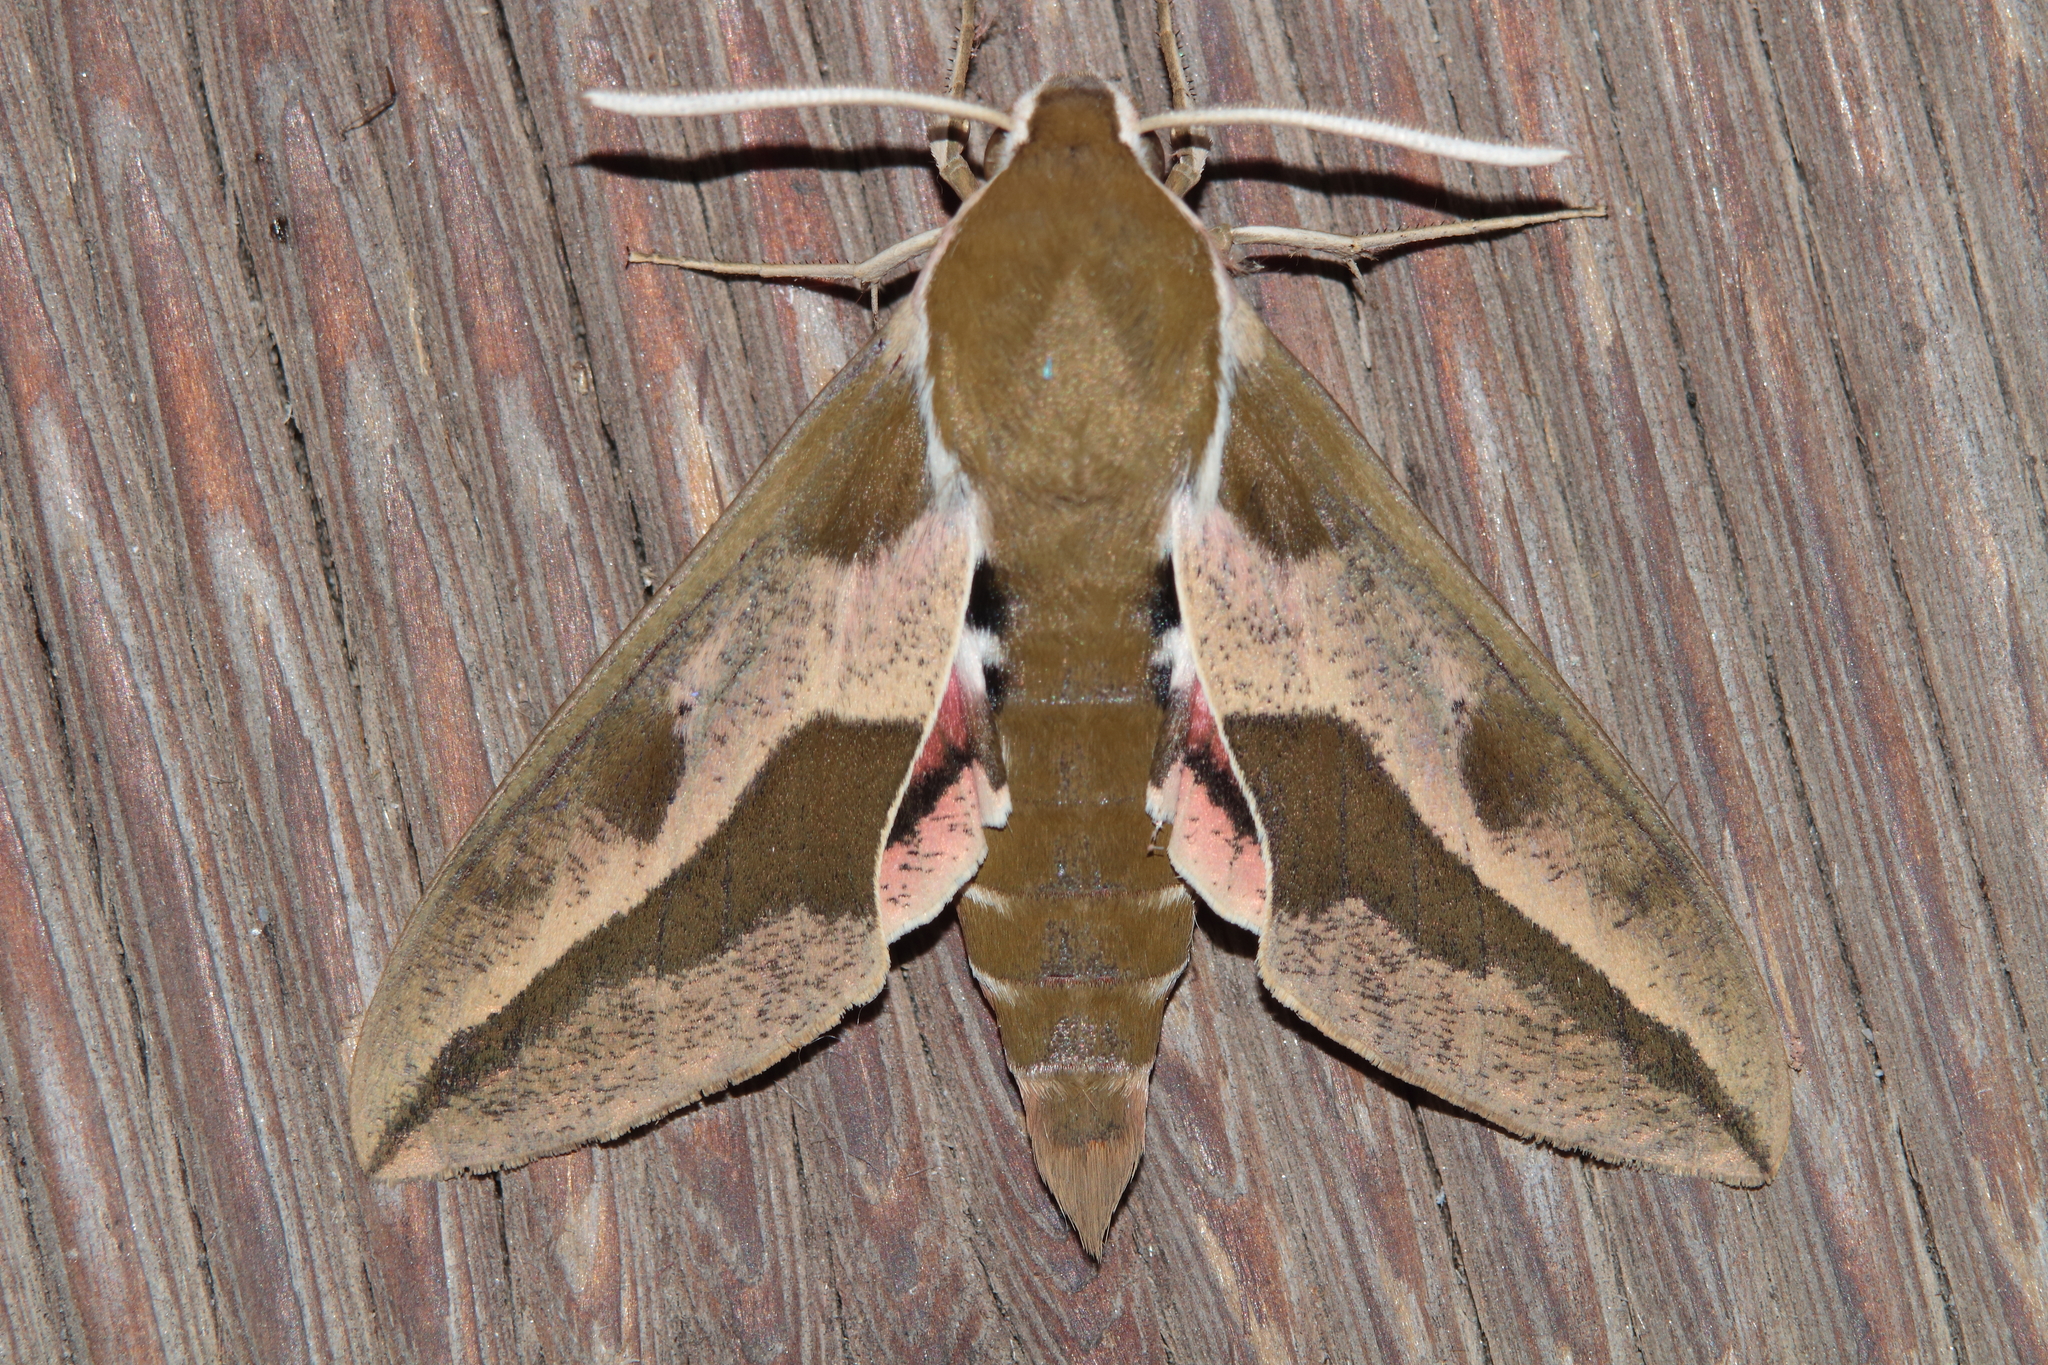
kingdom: Animalia
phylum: Arthropoda
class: Insecta
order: Lepidoptera
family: Sphingidae
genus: Hyles
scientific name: Hyles euphorbiae
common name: Spurge hawk-moth
